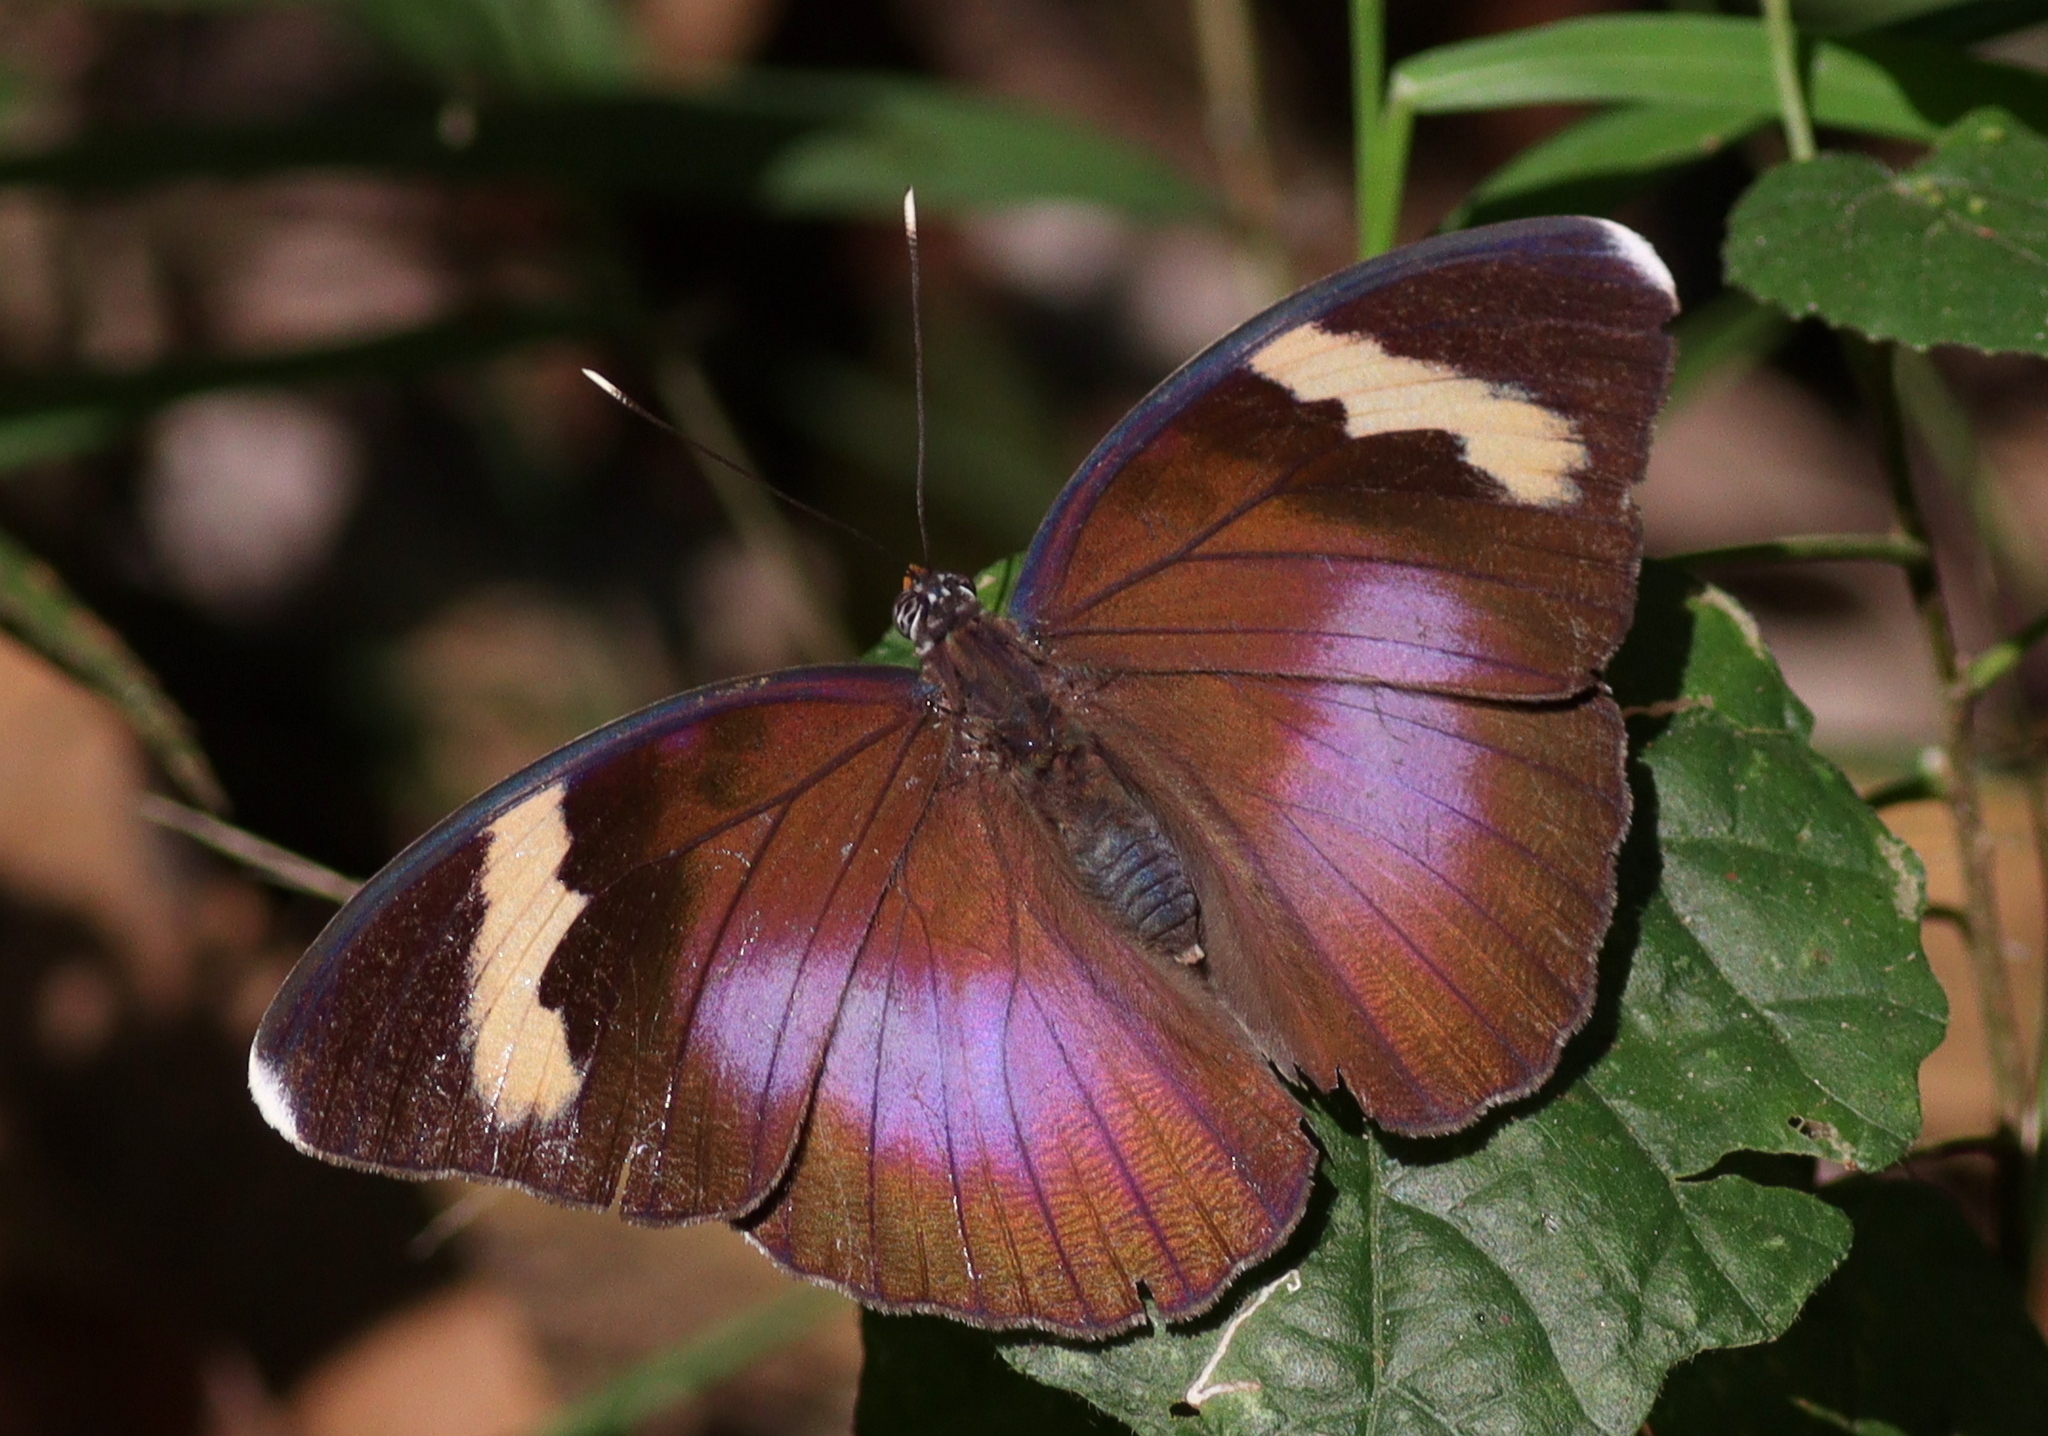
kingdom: Animalia
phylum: Arthropoda
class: Insecta
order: Lepidoptera
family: Nymphalidae
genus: Euphaedra
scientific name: Euphaedra medon
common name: Widespread forester
